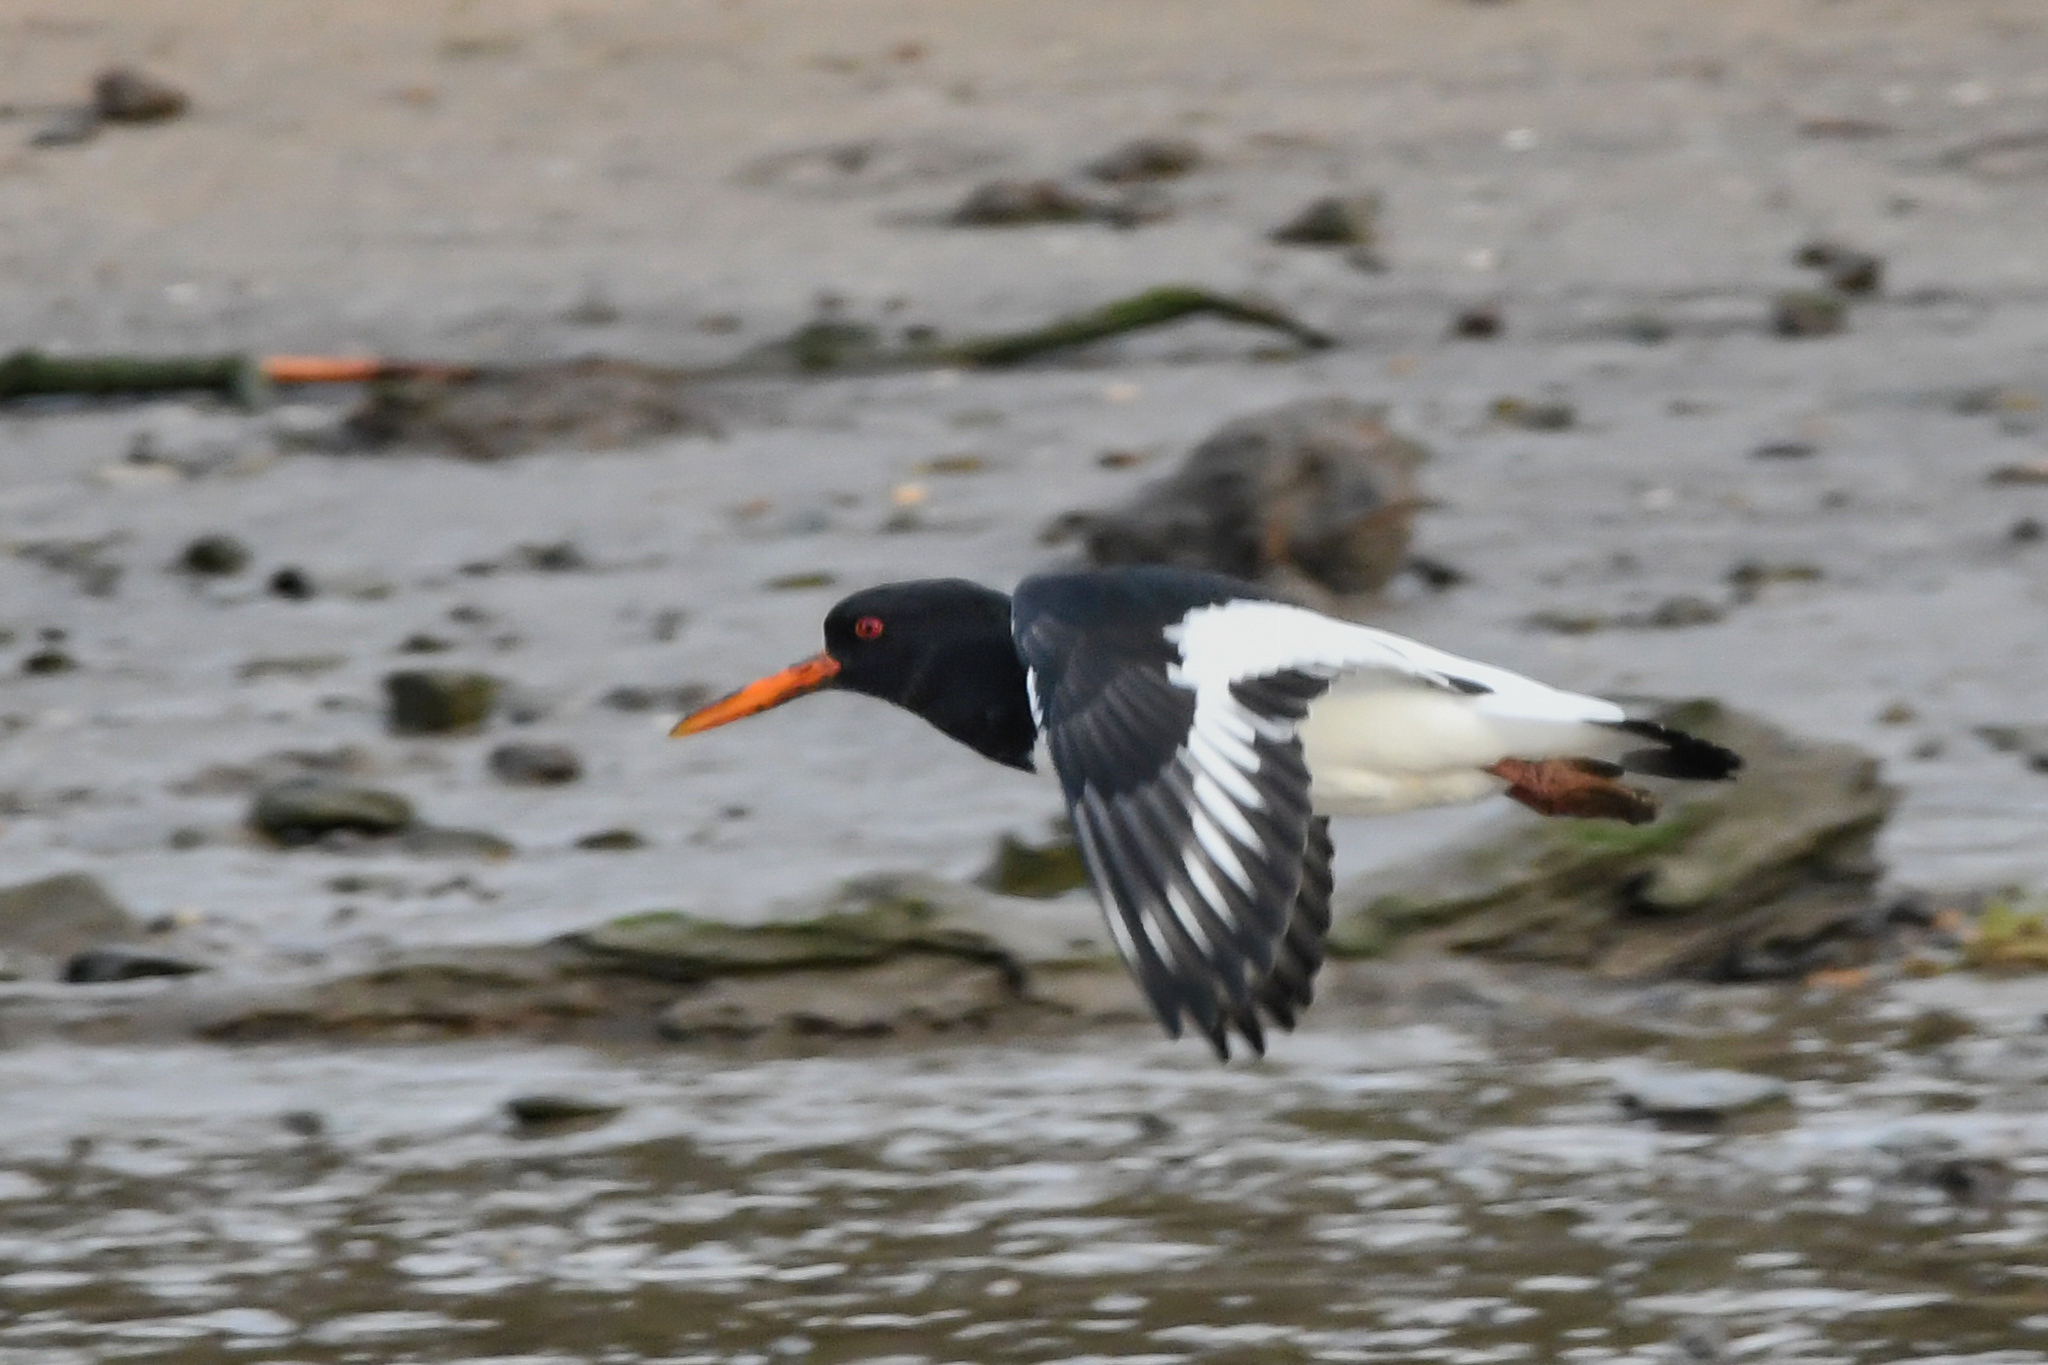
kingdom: Animalia
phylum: Chordata
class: Aves
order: Charadriiformes
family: Haematopodidae
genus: Haematopus
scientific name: Haematopus ostralegus
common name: Eurasian oystercatcher
